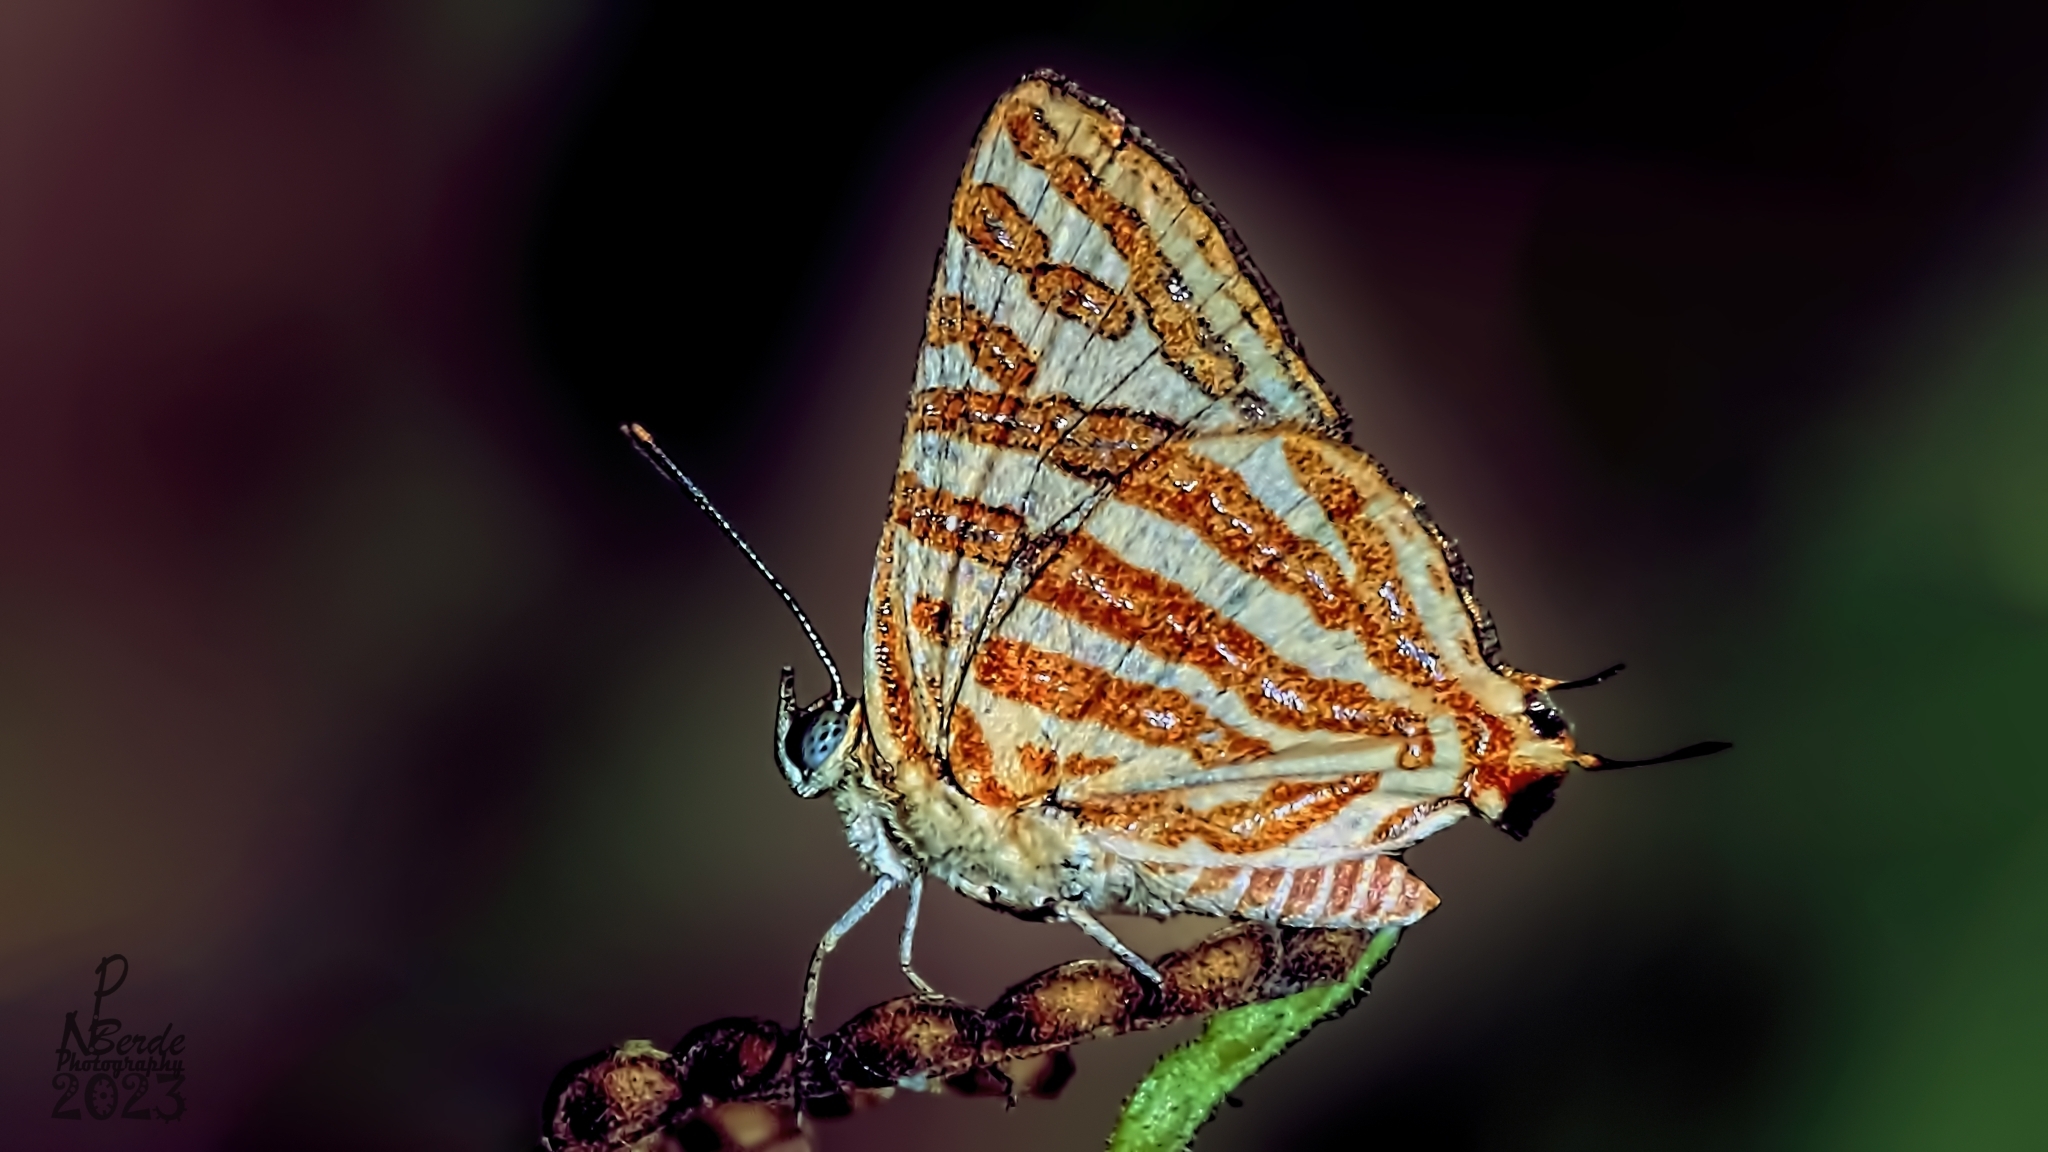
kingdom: Animalia
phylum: Arthropoda
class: Insecta
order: Lepidoptera
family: Lycaenidae
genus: Cigaritis
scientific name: Cigaritis vulcanus
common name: Common silverline
